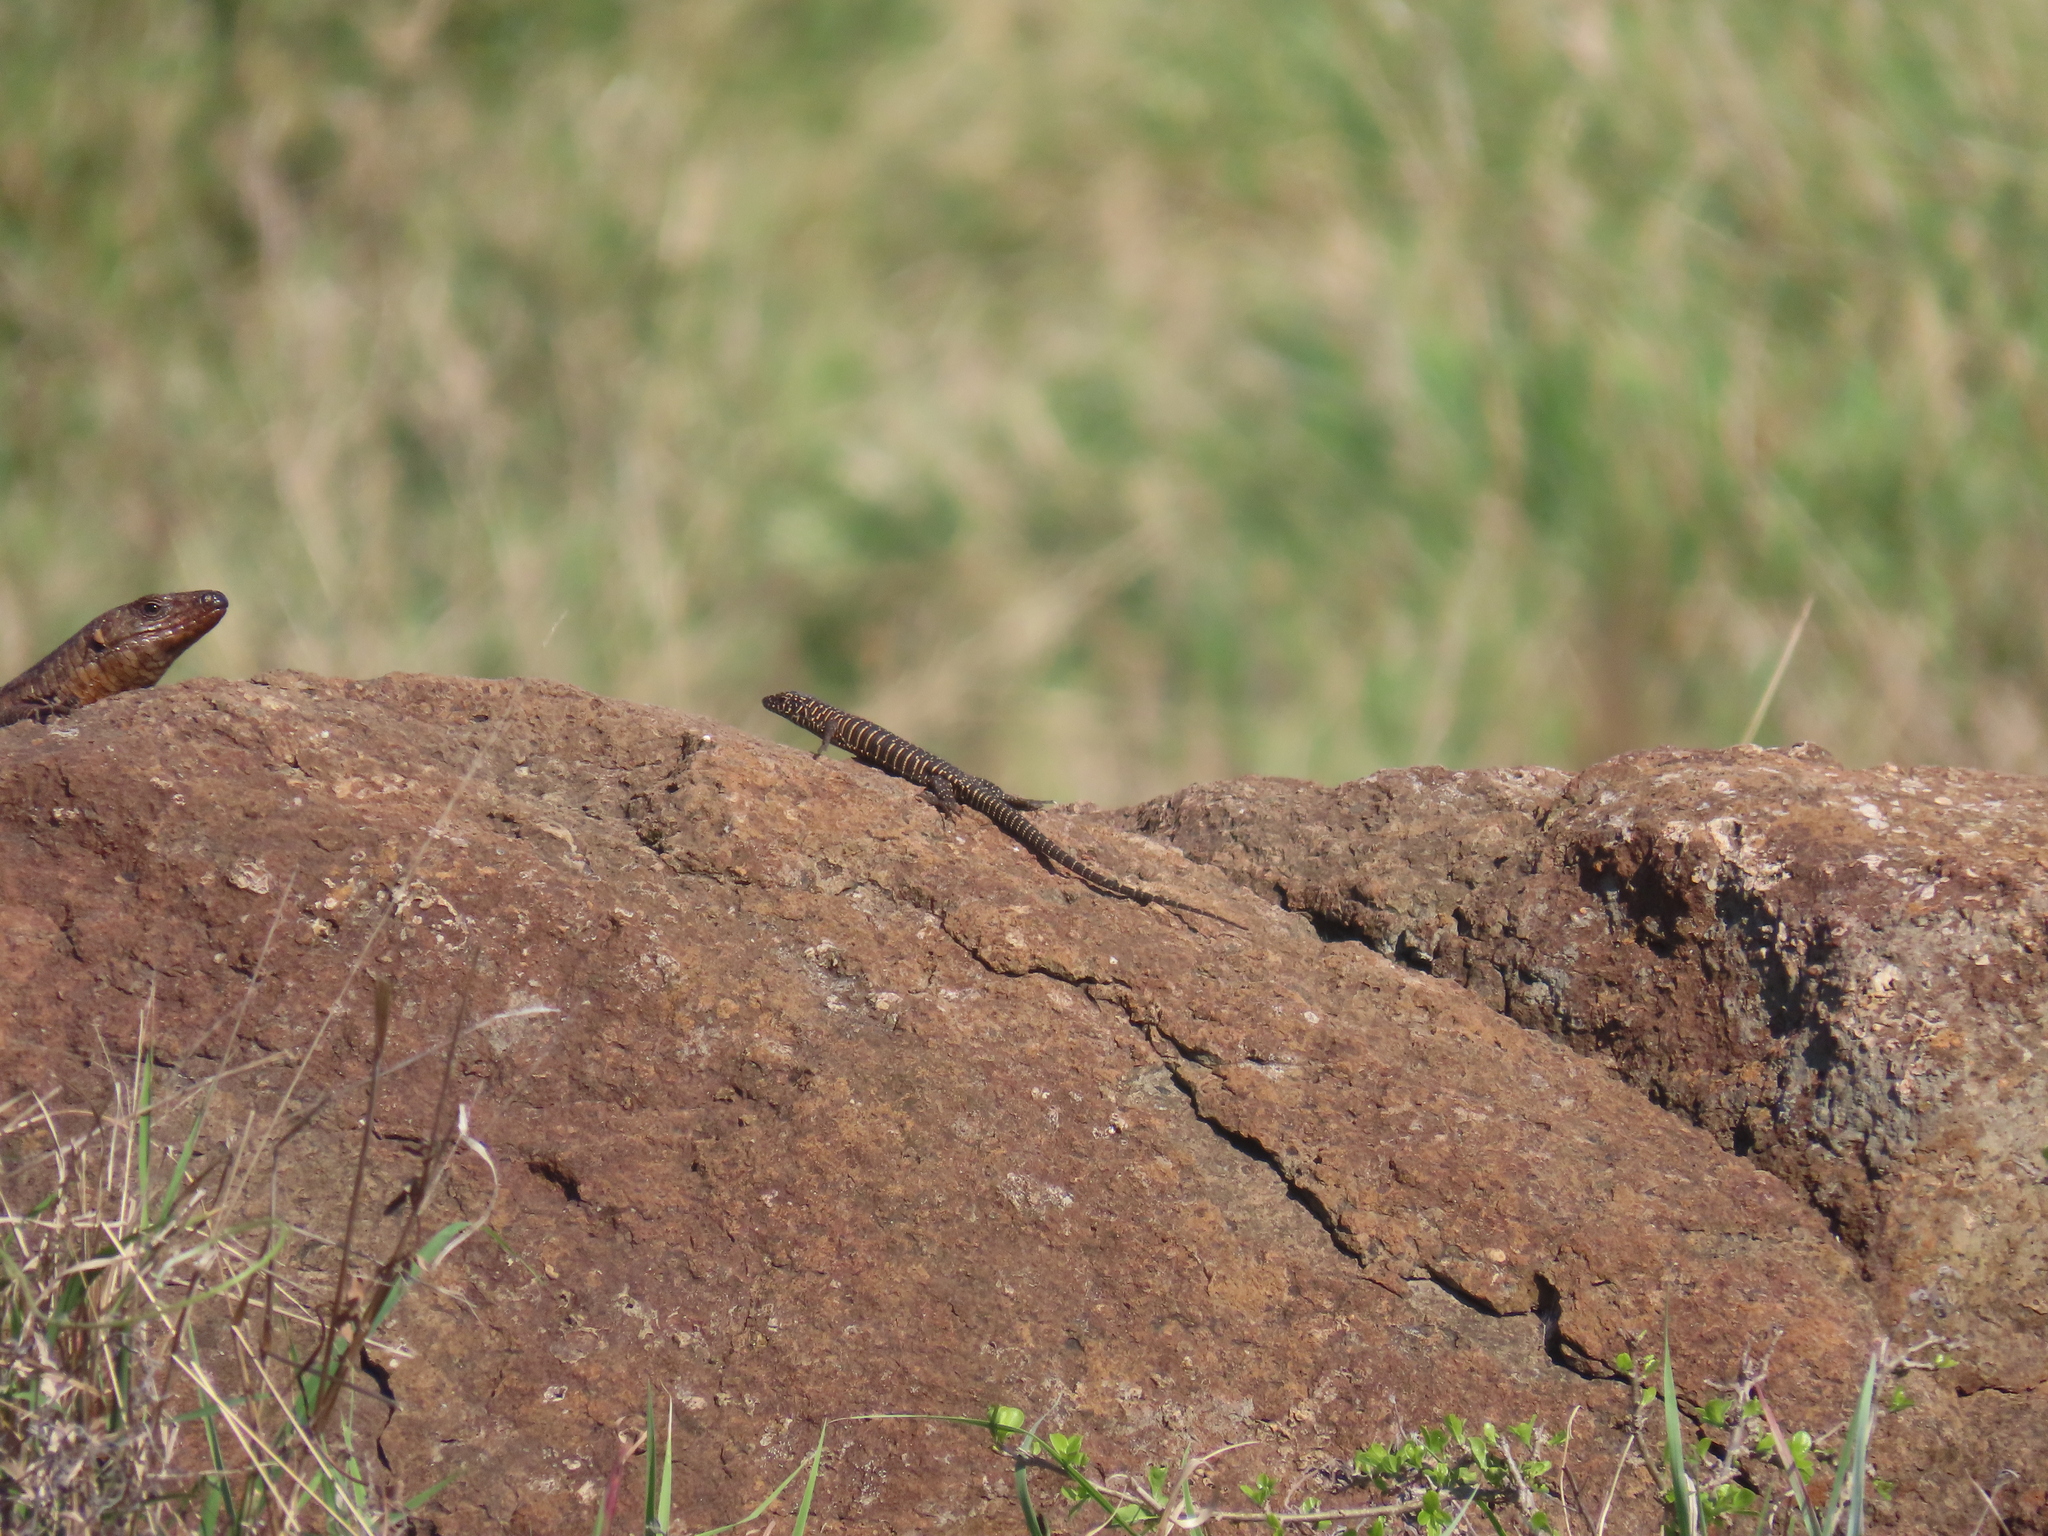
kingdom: Animalia
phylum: Chordata
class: Squamata
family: Gerrhosauridae
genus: Matobosaurus
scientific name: Matobosaurus validus
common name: Common giant plated lizard
